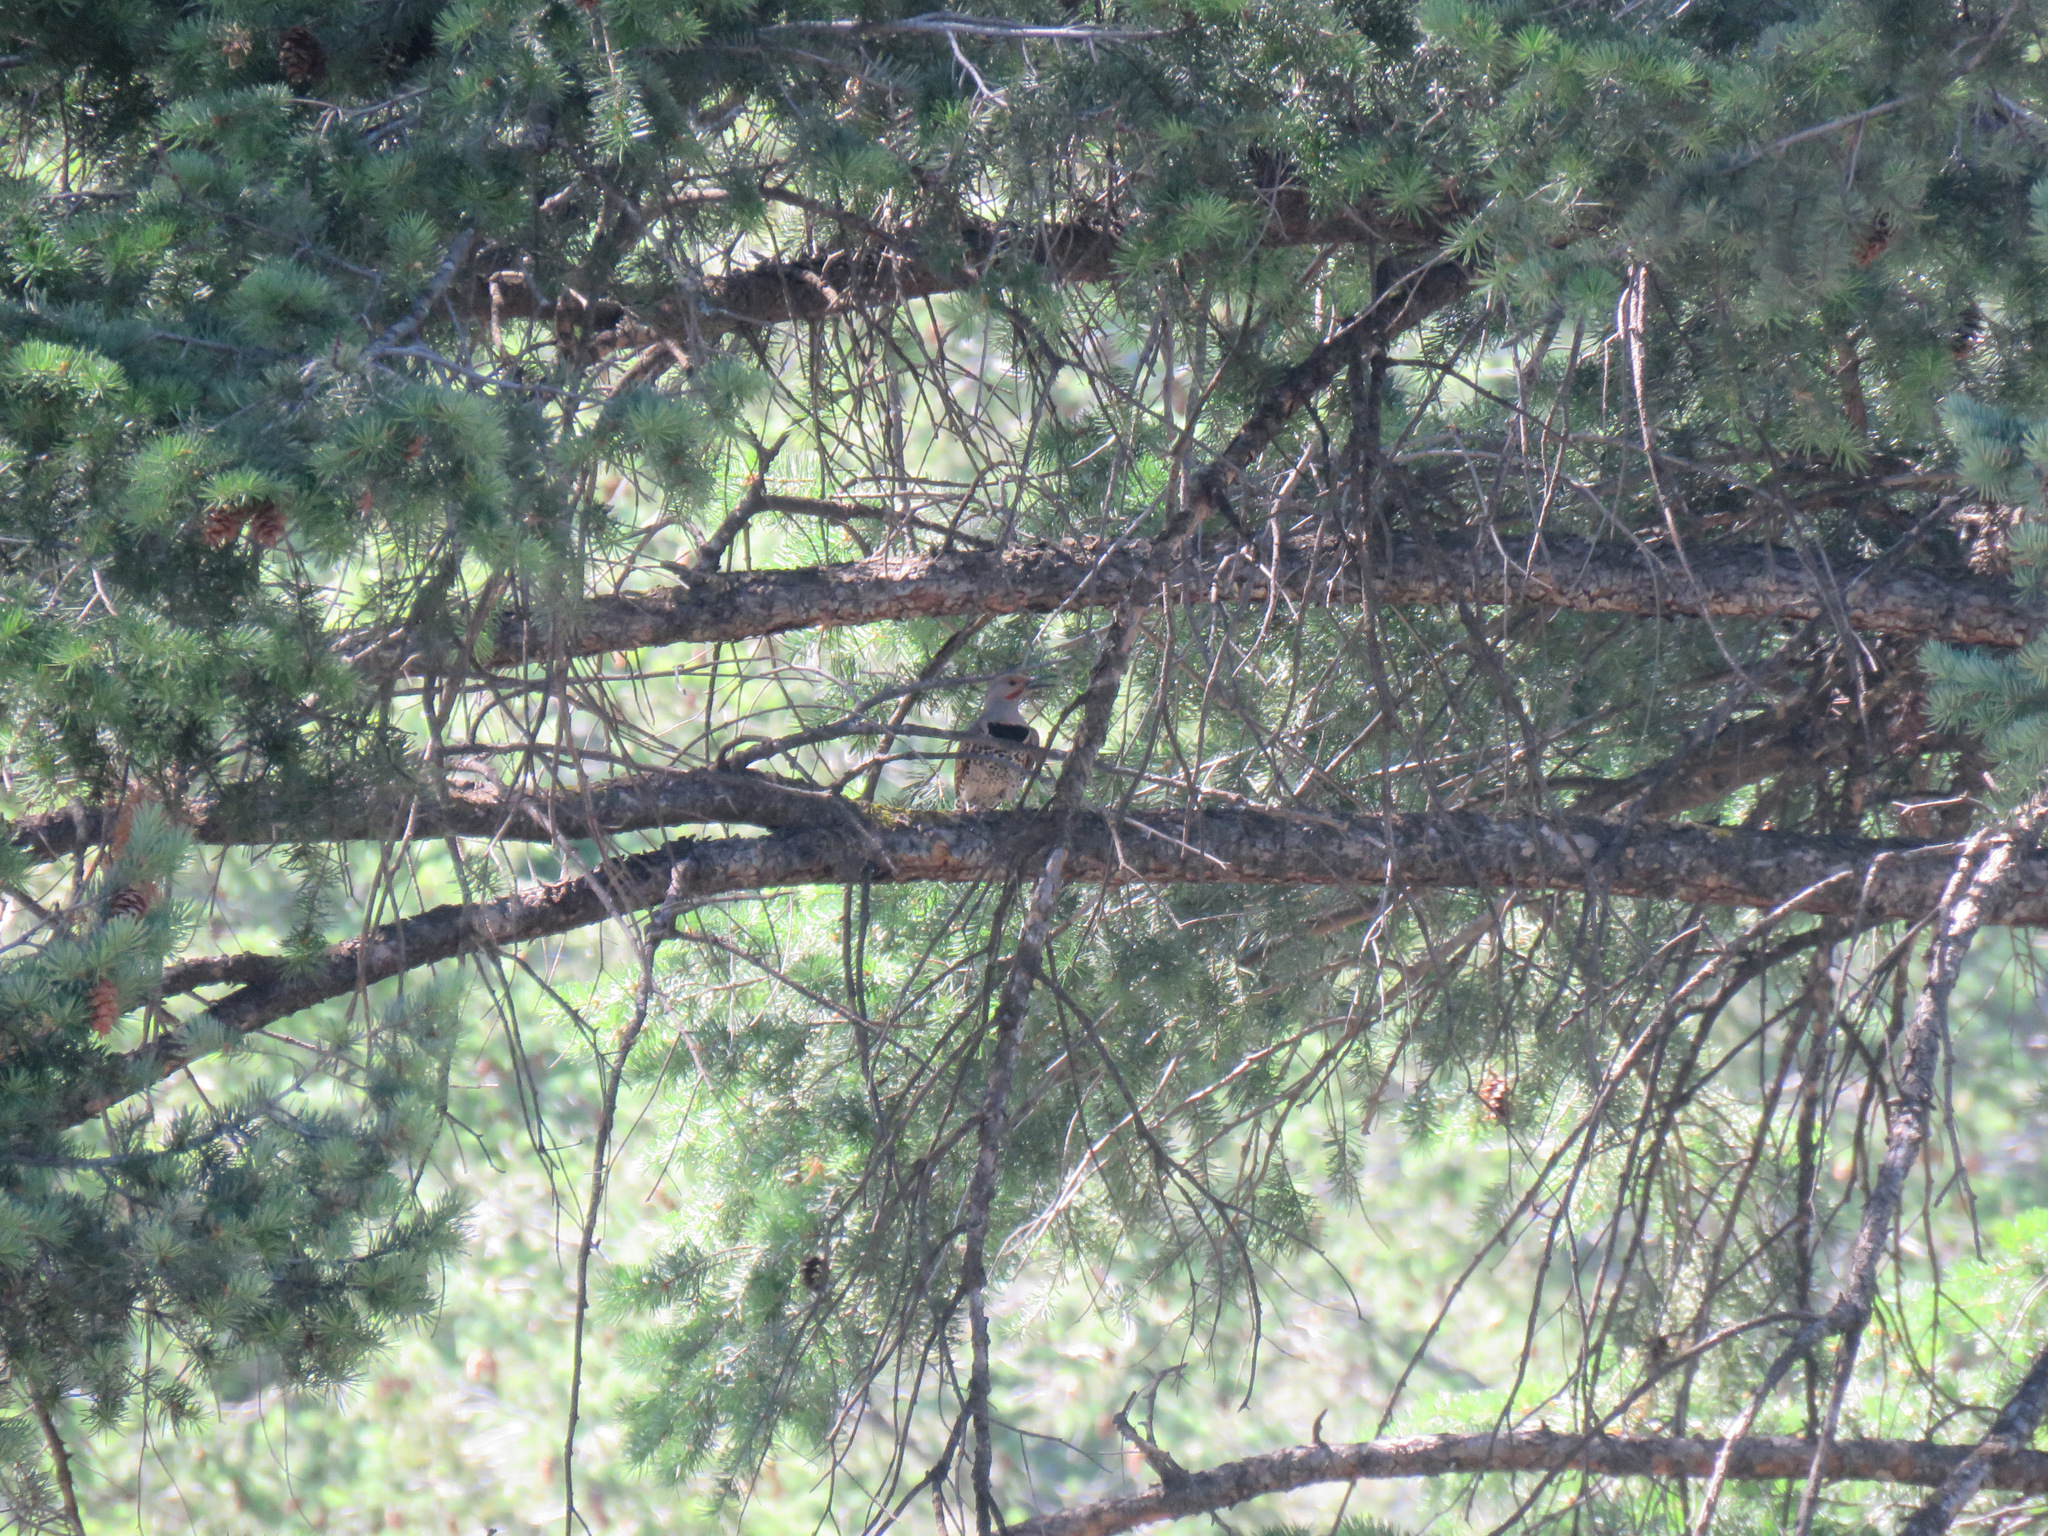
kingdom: Animalia
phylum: Chordata
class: Aves
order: Piciformes
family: Picidae
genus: Colaptes
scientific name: Colaptes auratus
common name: Northern flicker
